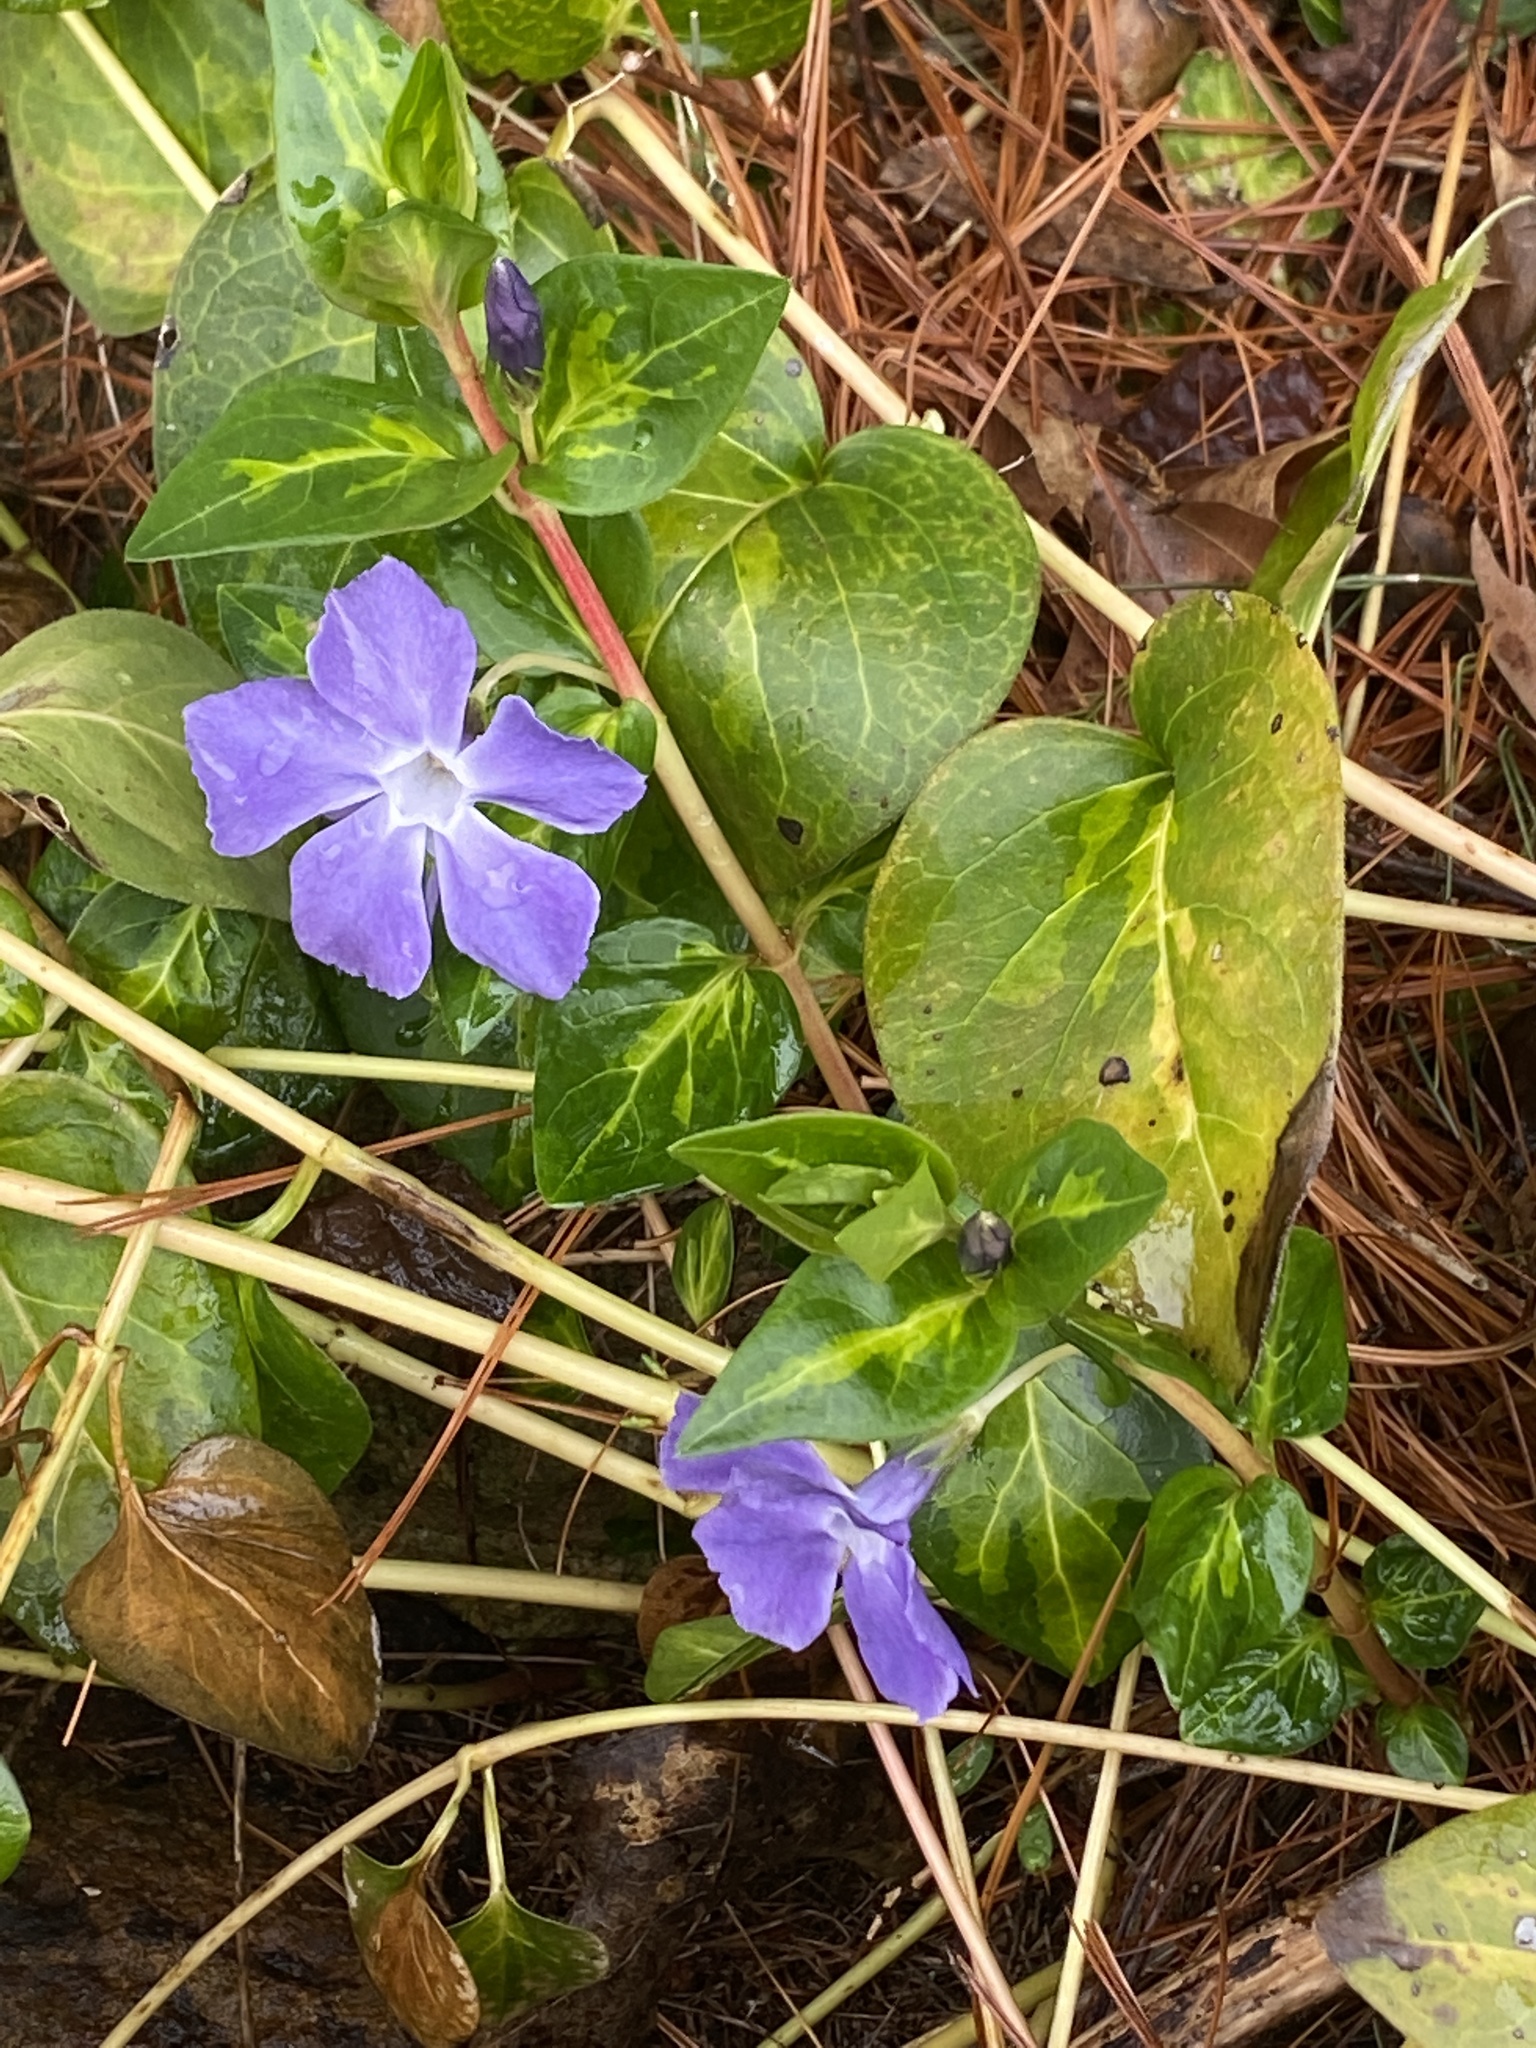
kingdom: Plantae
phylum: Tracheophyta
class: Magnoliopsida
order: Gentianales
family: Apocynaceae
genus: Vinca
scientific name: Vinca major
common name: Greater periwinkle
